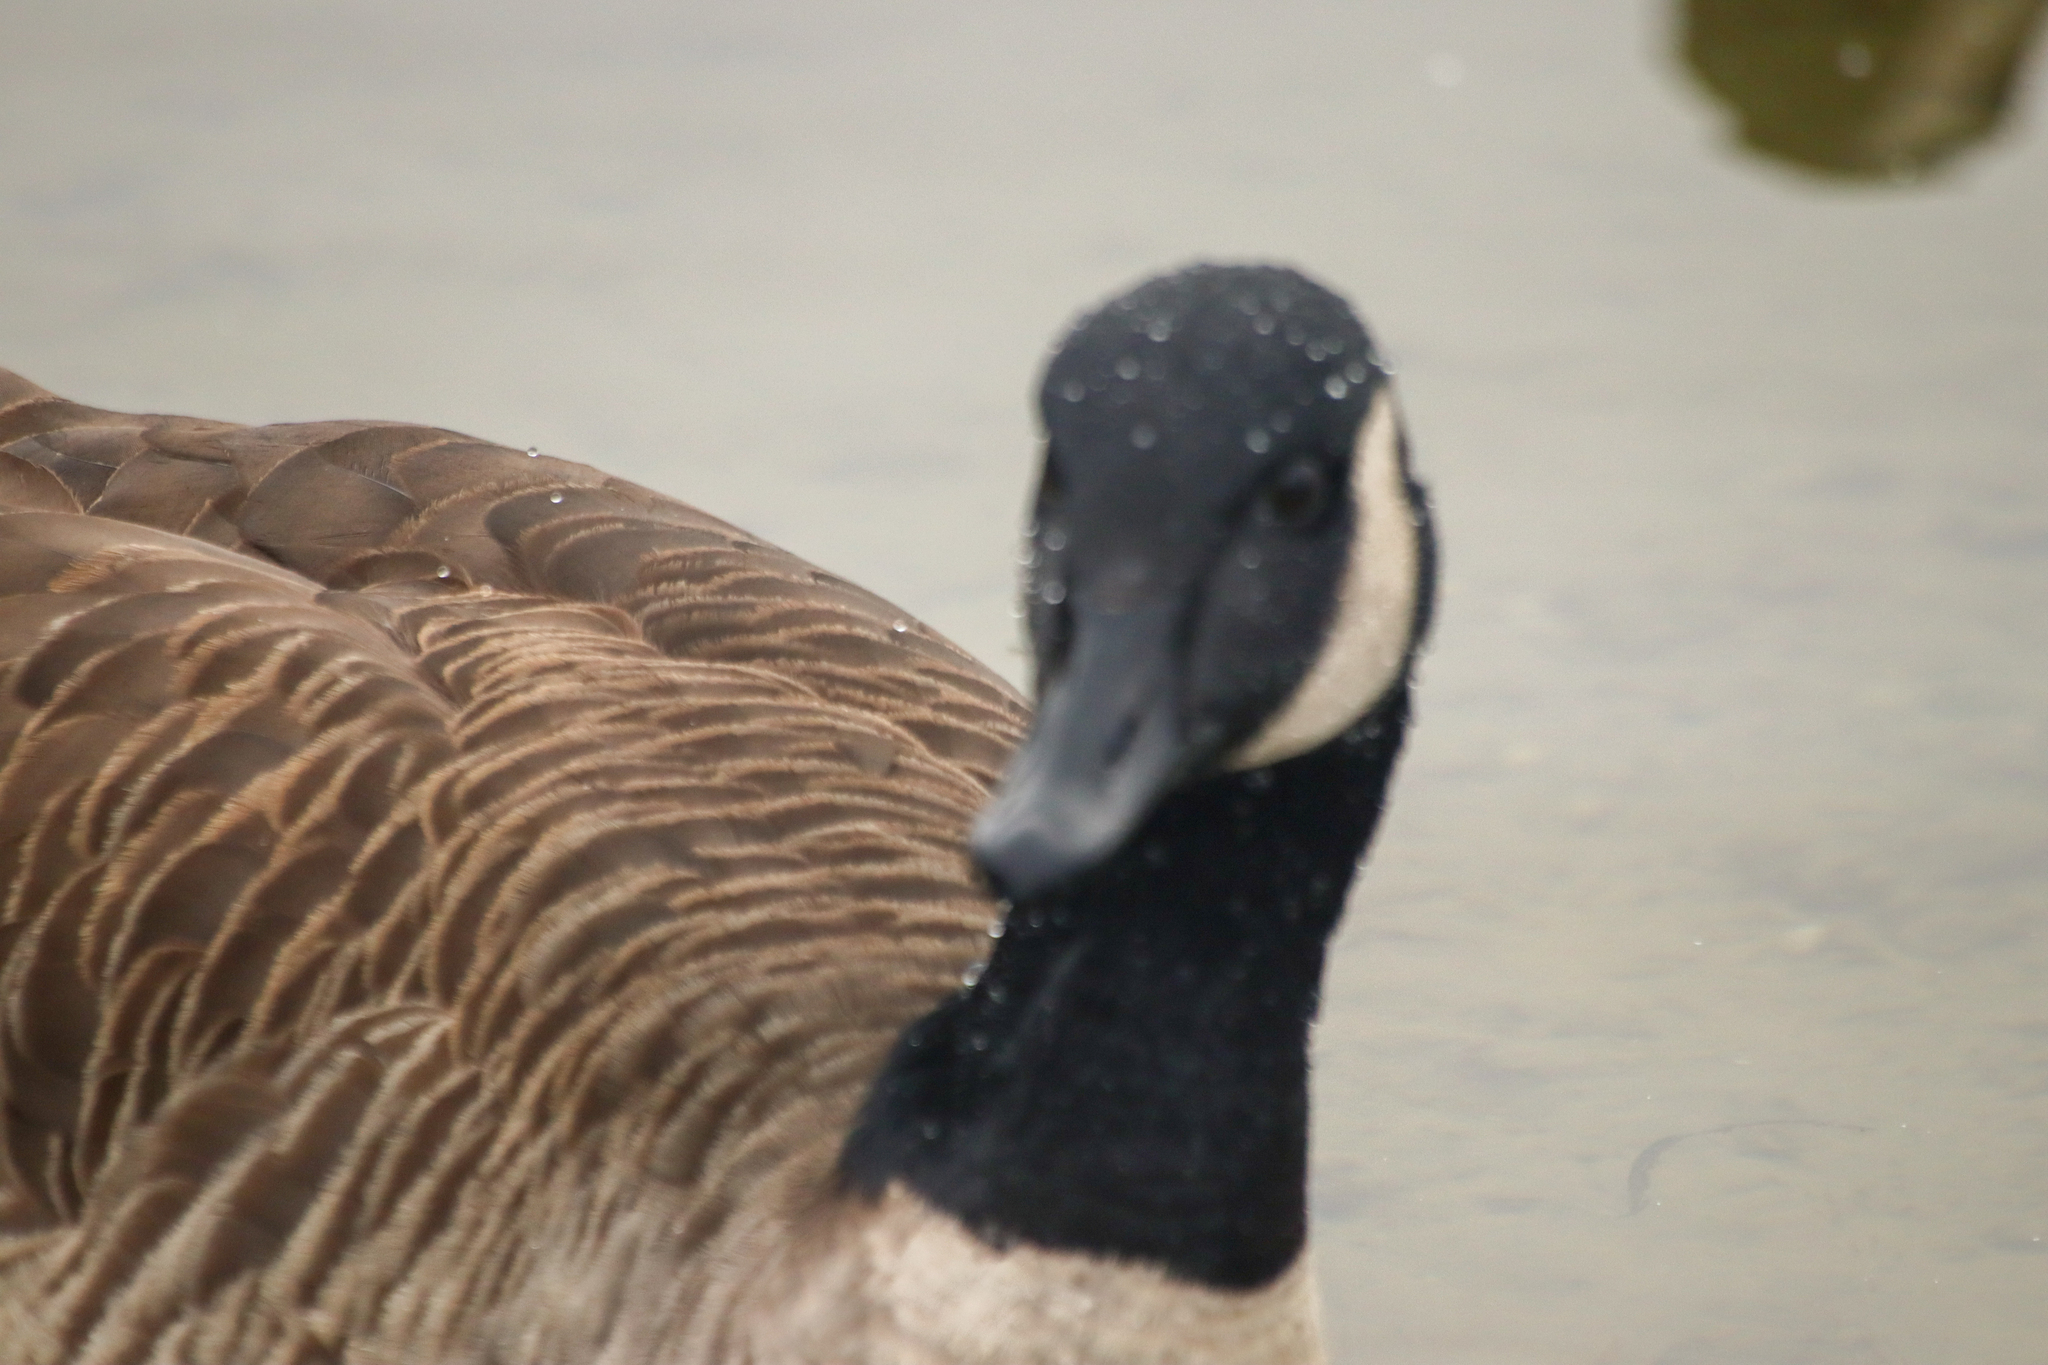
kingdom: Animalia
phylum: Chordata
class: Aves
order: Anseriformes
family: Anatidae
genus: Branta
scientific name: Branta canadensis
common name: Canada goose
